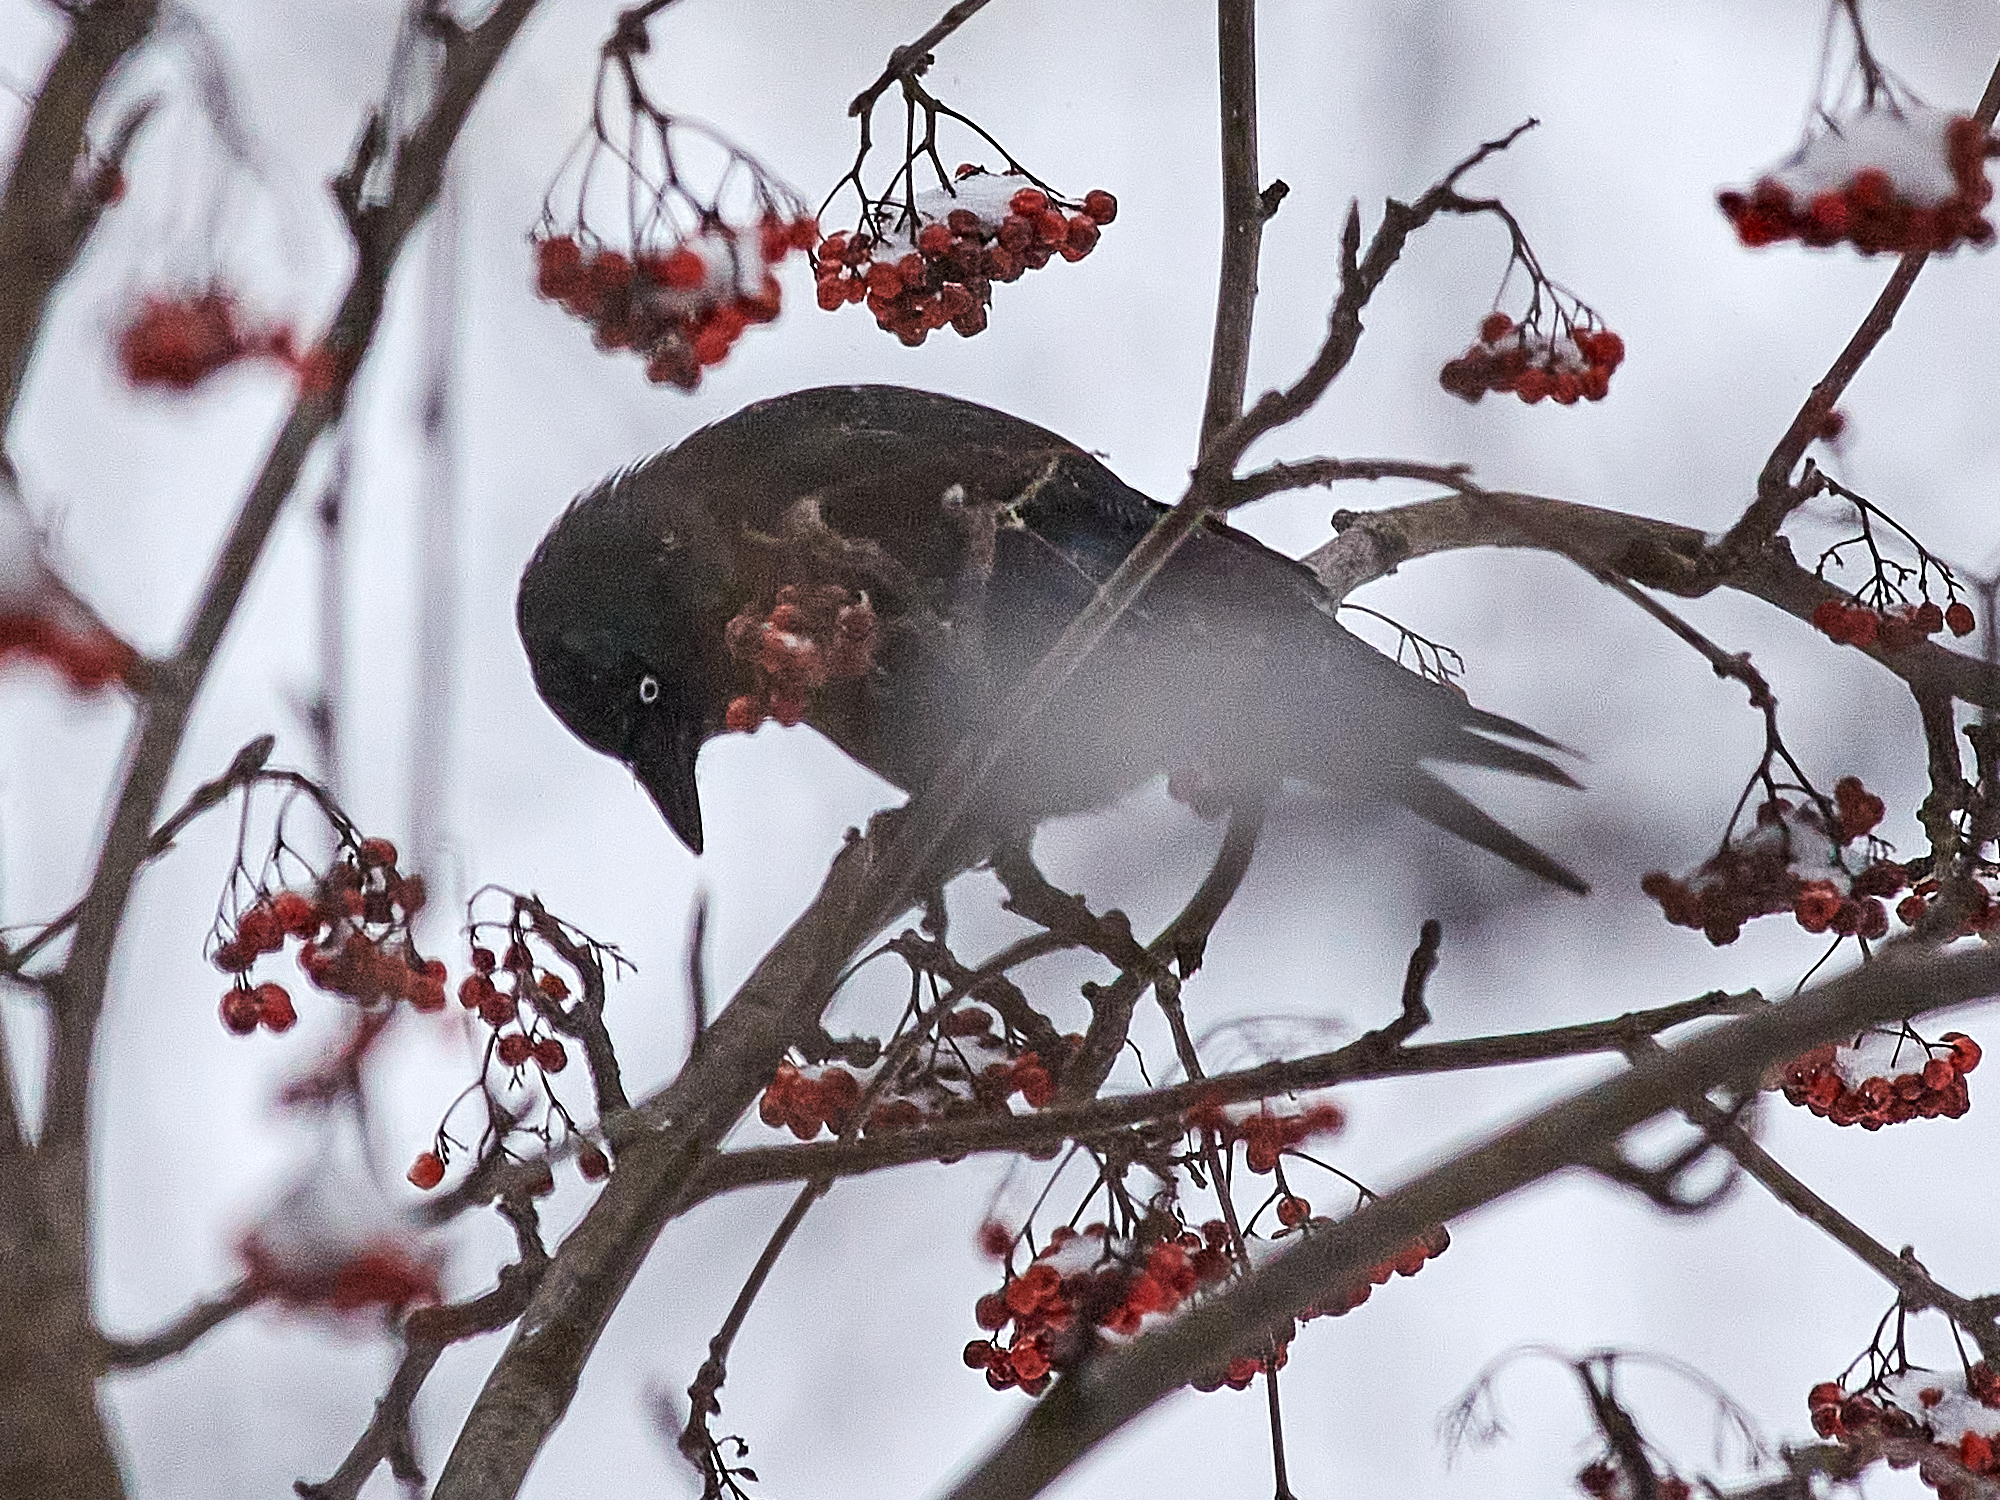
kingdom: Animalia
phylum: Chordata
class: Aves
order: Passeriformes
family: Corvidae
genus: Coloeus
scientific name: Coloeus monedula
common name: Western jackdaw
